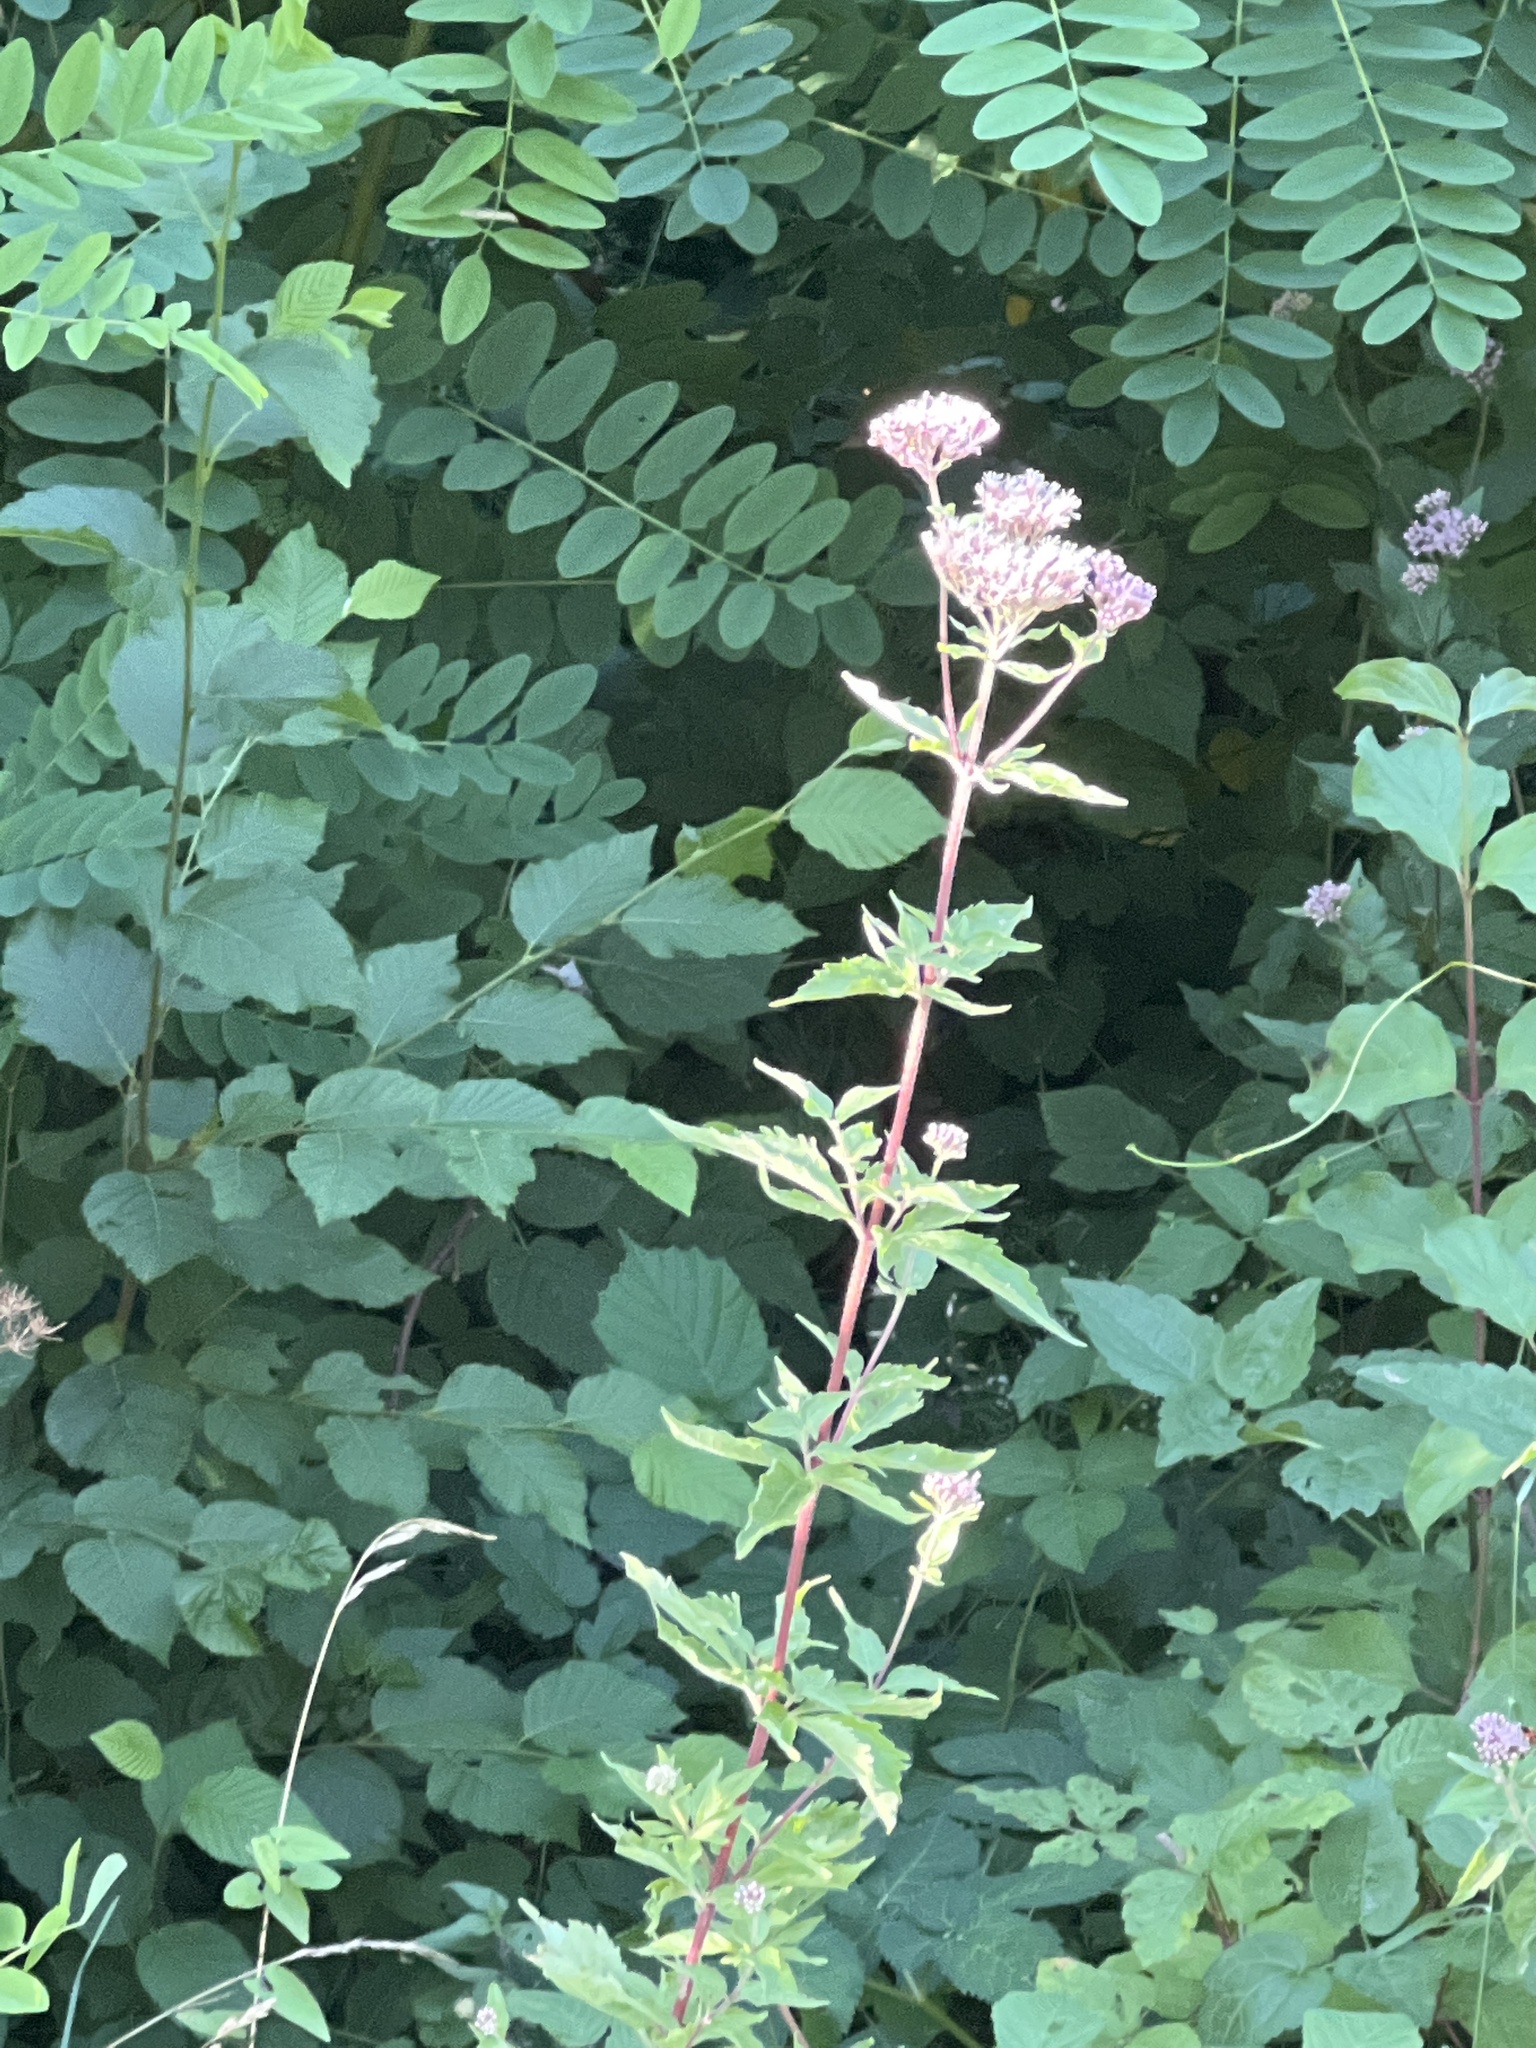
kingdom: Plantae
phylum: Tracheophyta
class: Magnoliopsida
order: Asterales
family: Asteraceae
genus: Eupatorium
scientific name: Eupatorium cannabinum
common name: Hemp-agrimony
